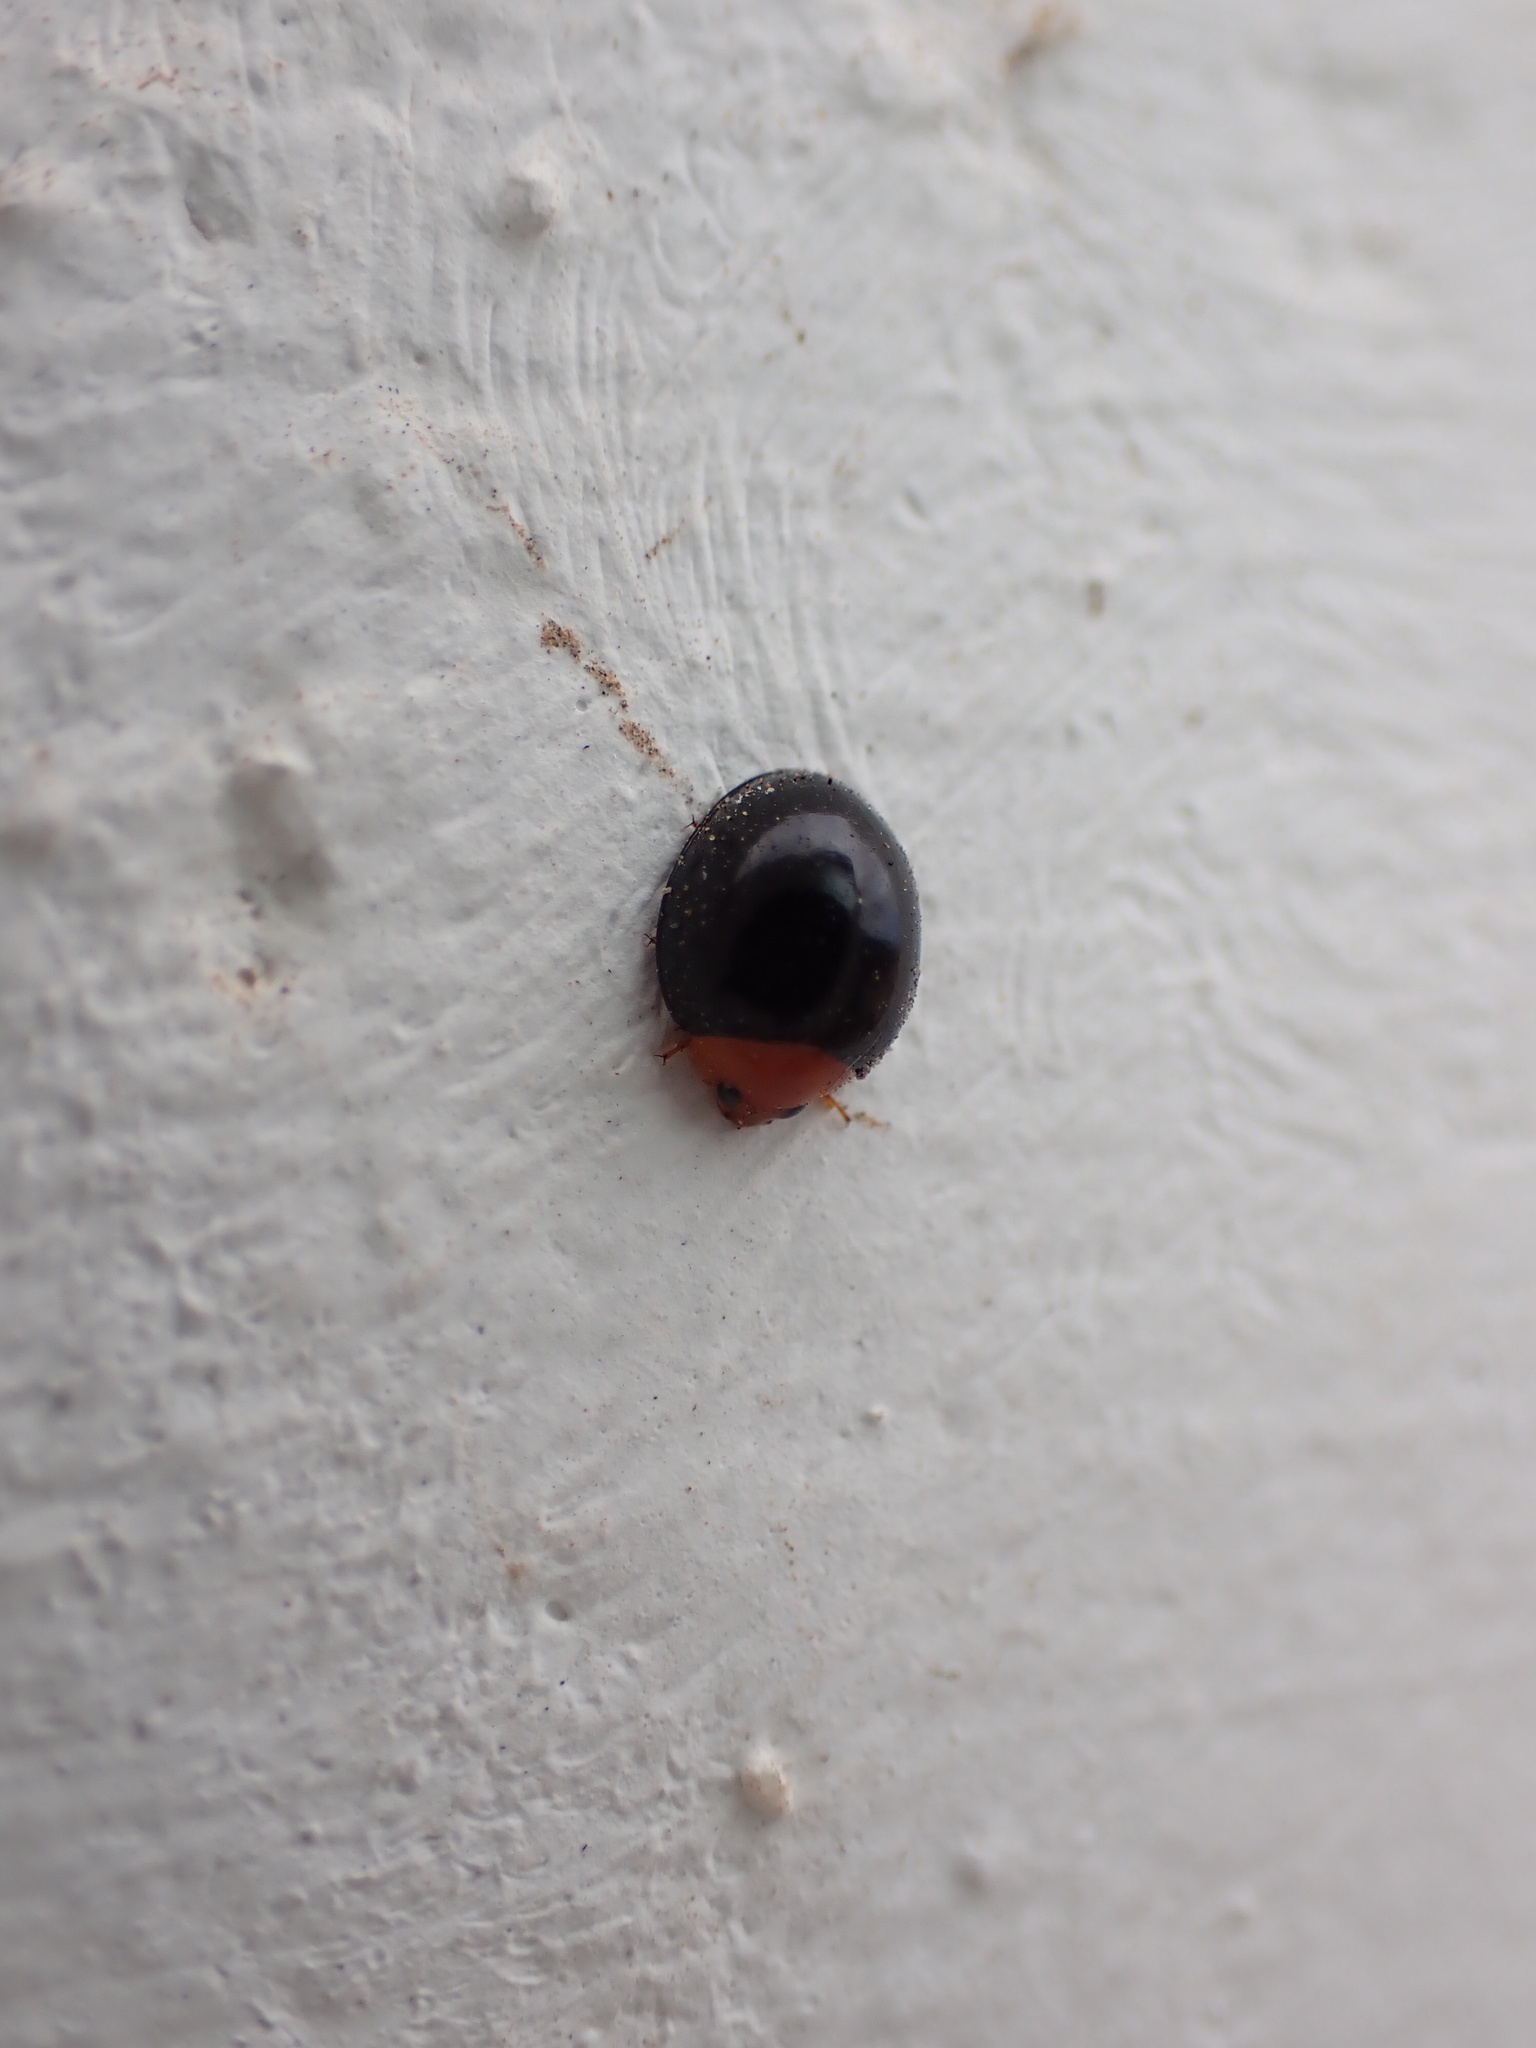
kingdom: Animalia
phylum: Arthropoda
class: Insecta
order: Coleoptera
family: Coccinellidae
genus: Exochomus
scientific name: Exochomus nigripennis
